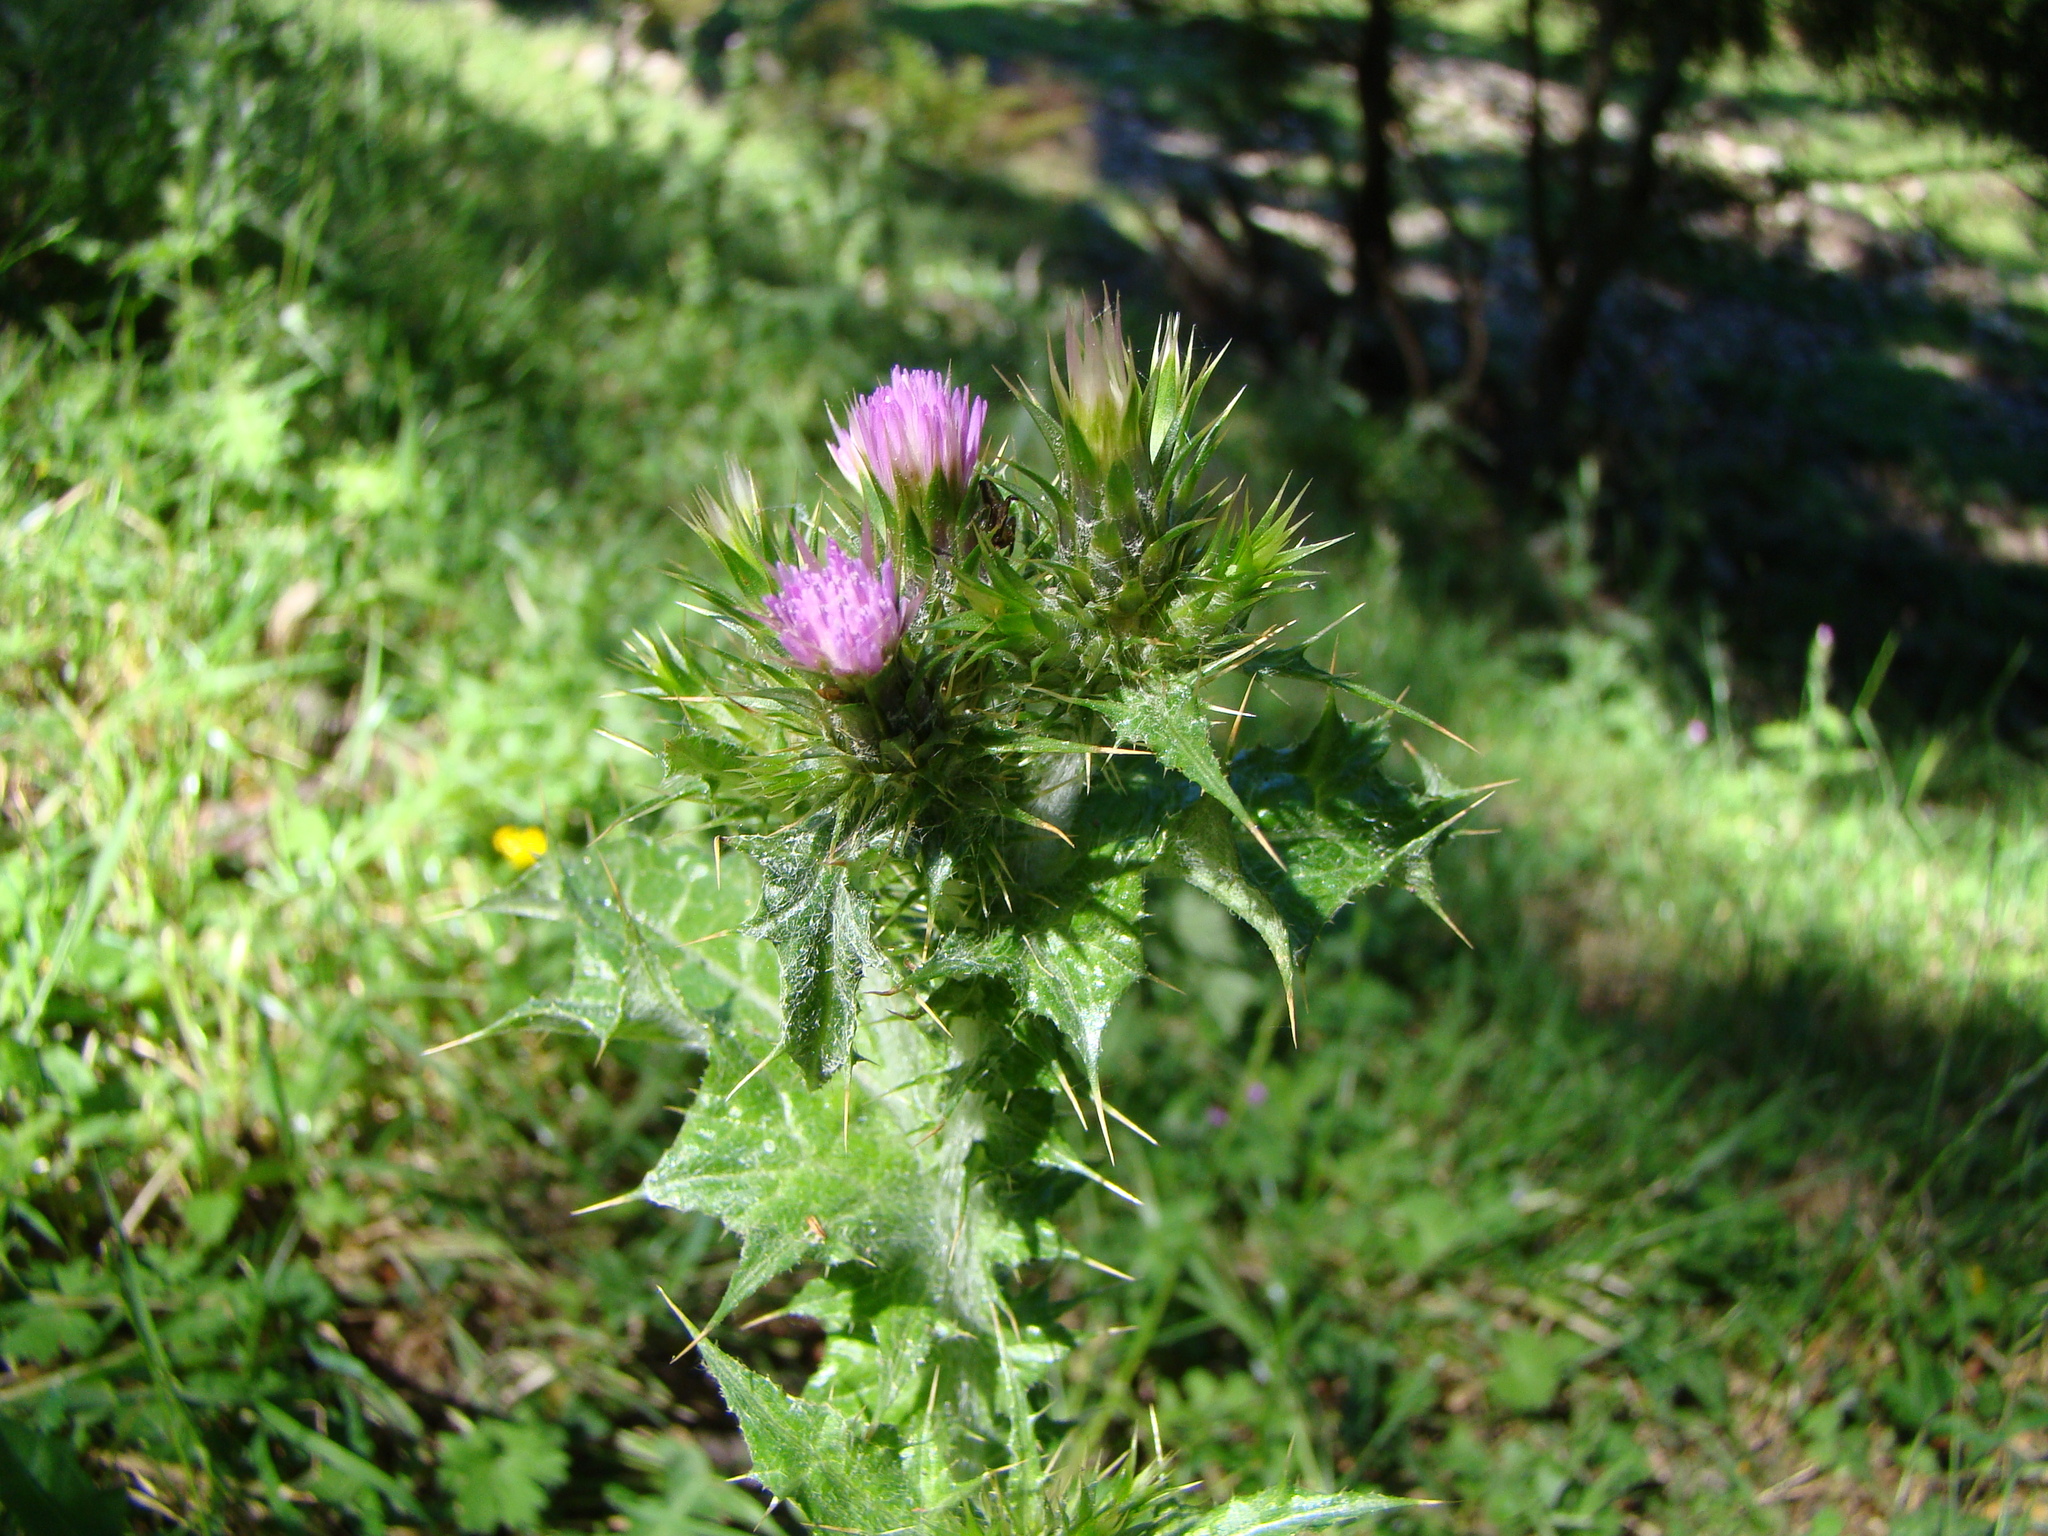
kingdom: Plantae
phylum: Tracheophyta
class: Magnoliopsida
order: Asterales
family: Asteraceae
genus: Carduus
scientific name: Carduus tenuiflorus
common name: Slender thistle
